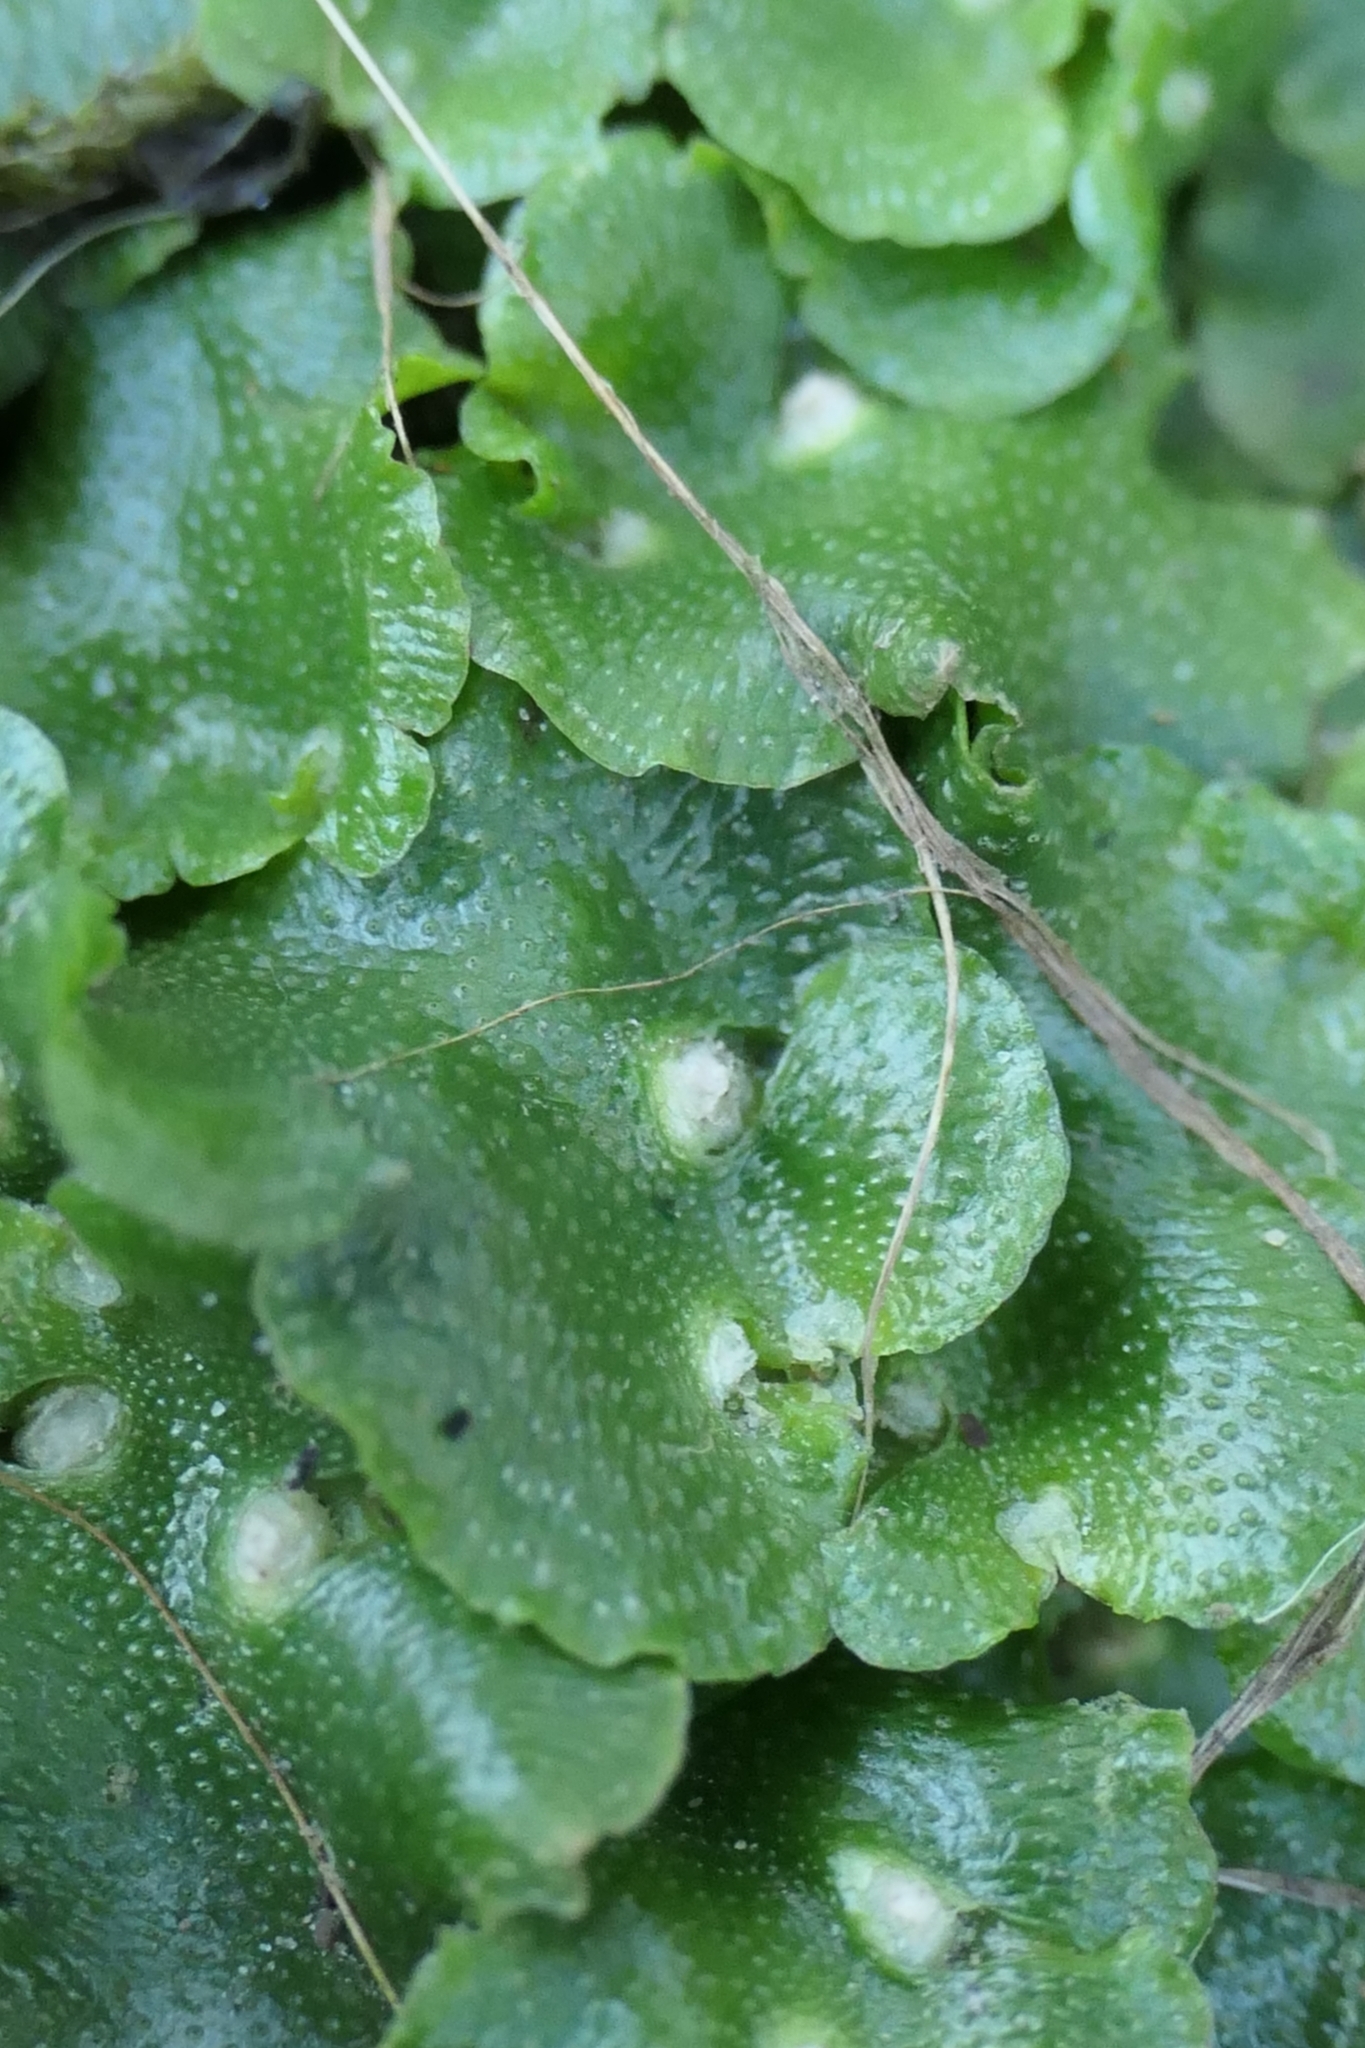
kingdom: Plantae
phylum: Marchantiophyta
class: Marchantiopsida
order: Lunulariales
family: Lunulariaceae
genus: Lunularia
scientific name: Lunularia cruciata
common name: Crescent-cup liverwort
